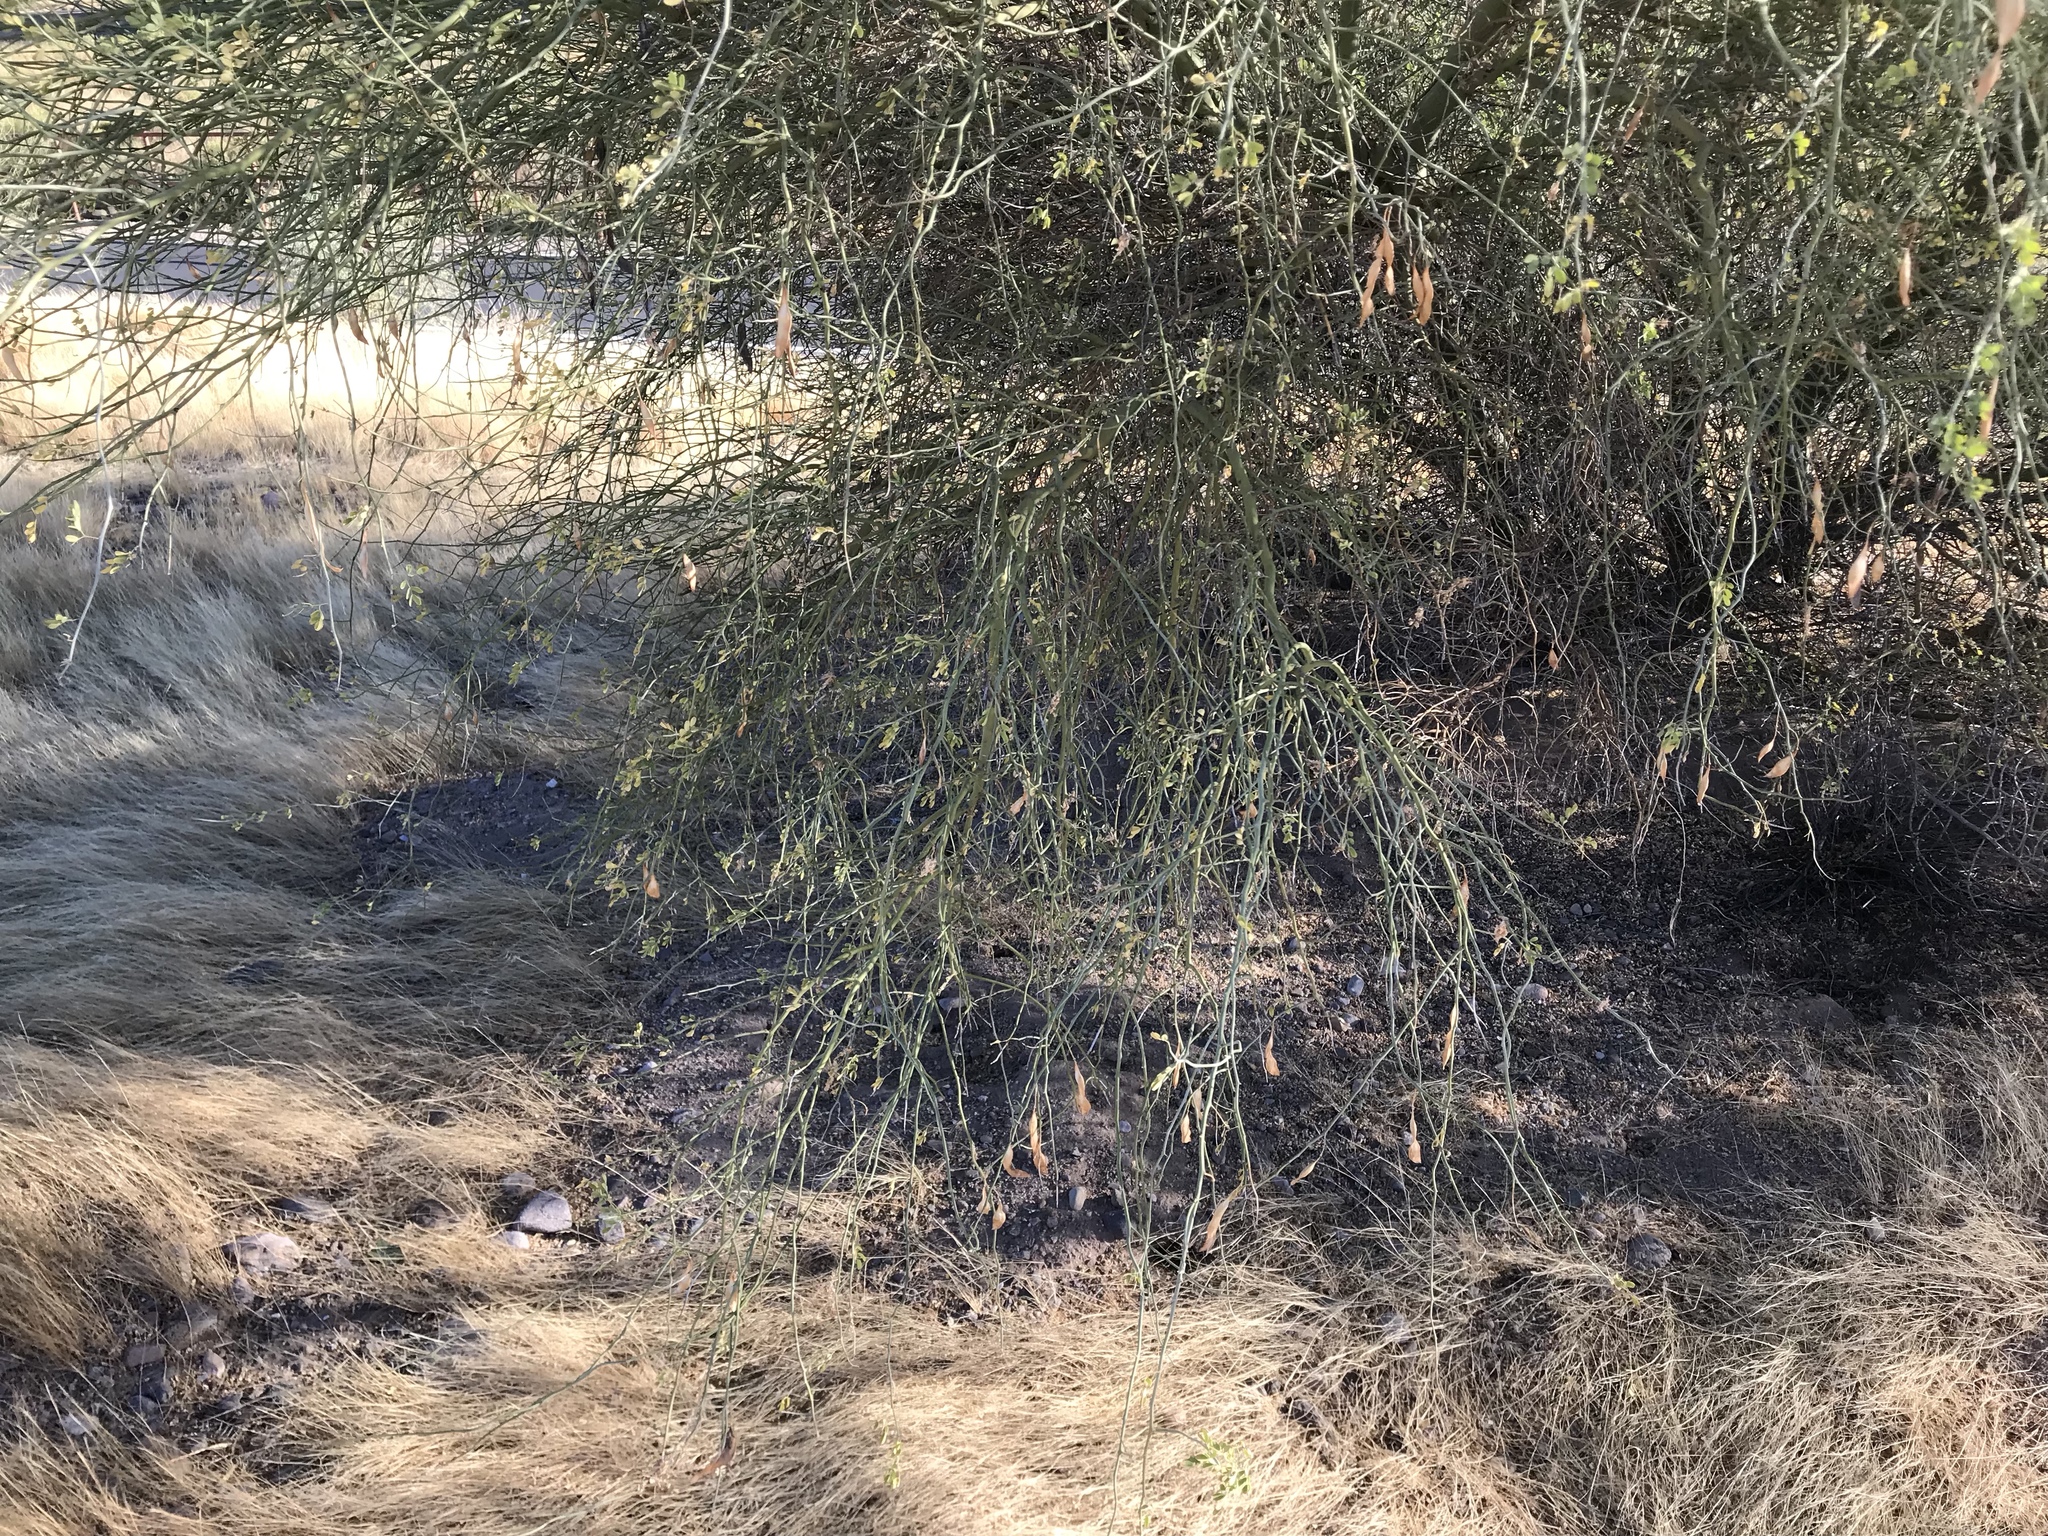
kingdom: Plantae
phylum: Tracheophyta
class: Magnoliopsida
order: Fabales
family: Fabaceae
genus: Parkinsonia
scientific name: Parkinsonia florida
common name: Blue paloverde
